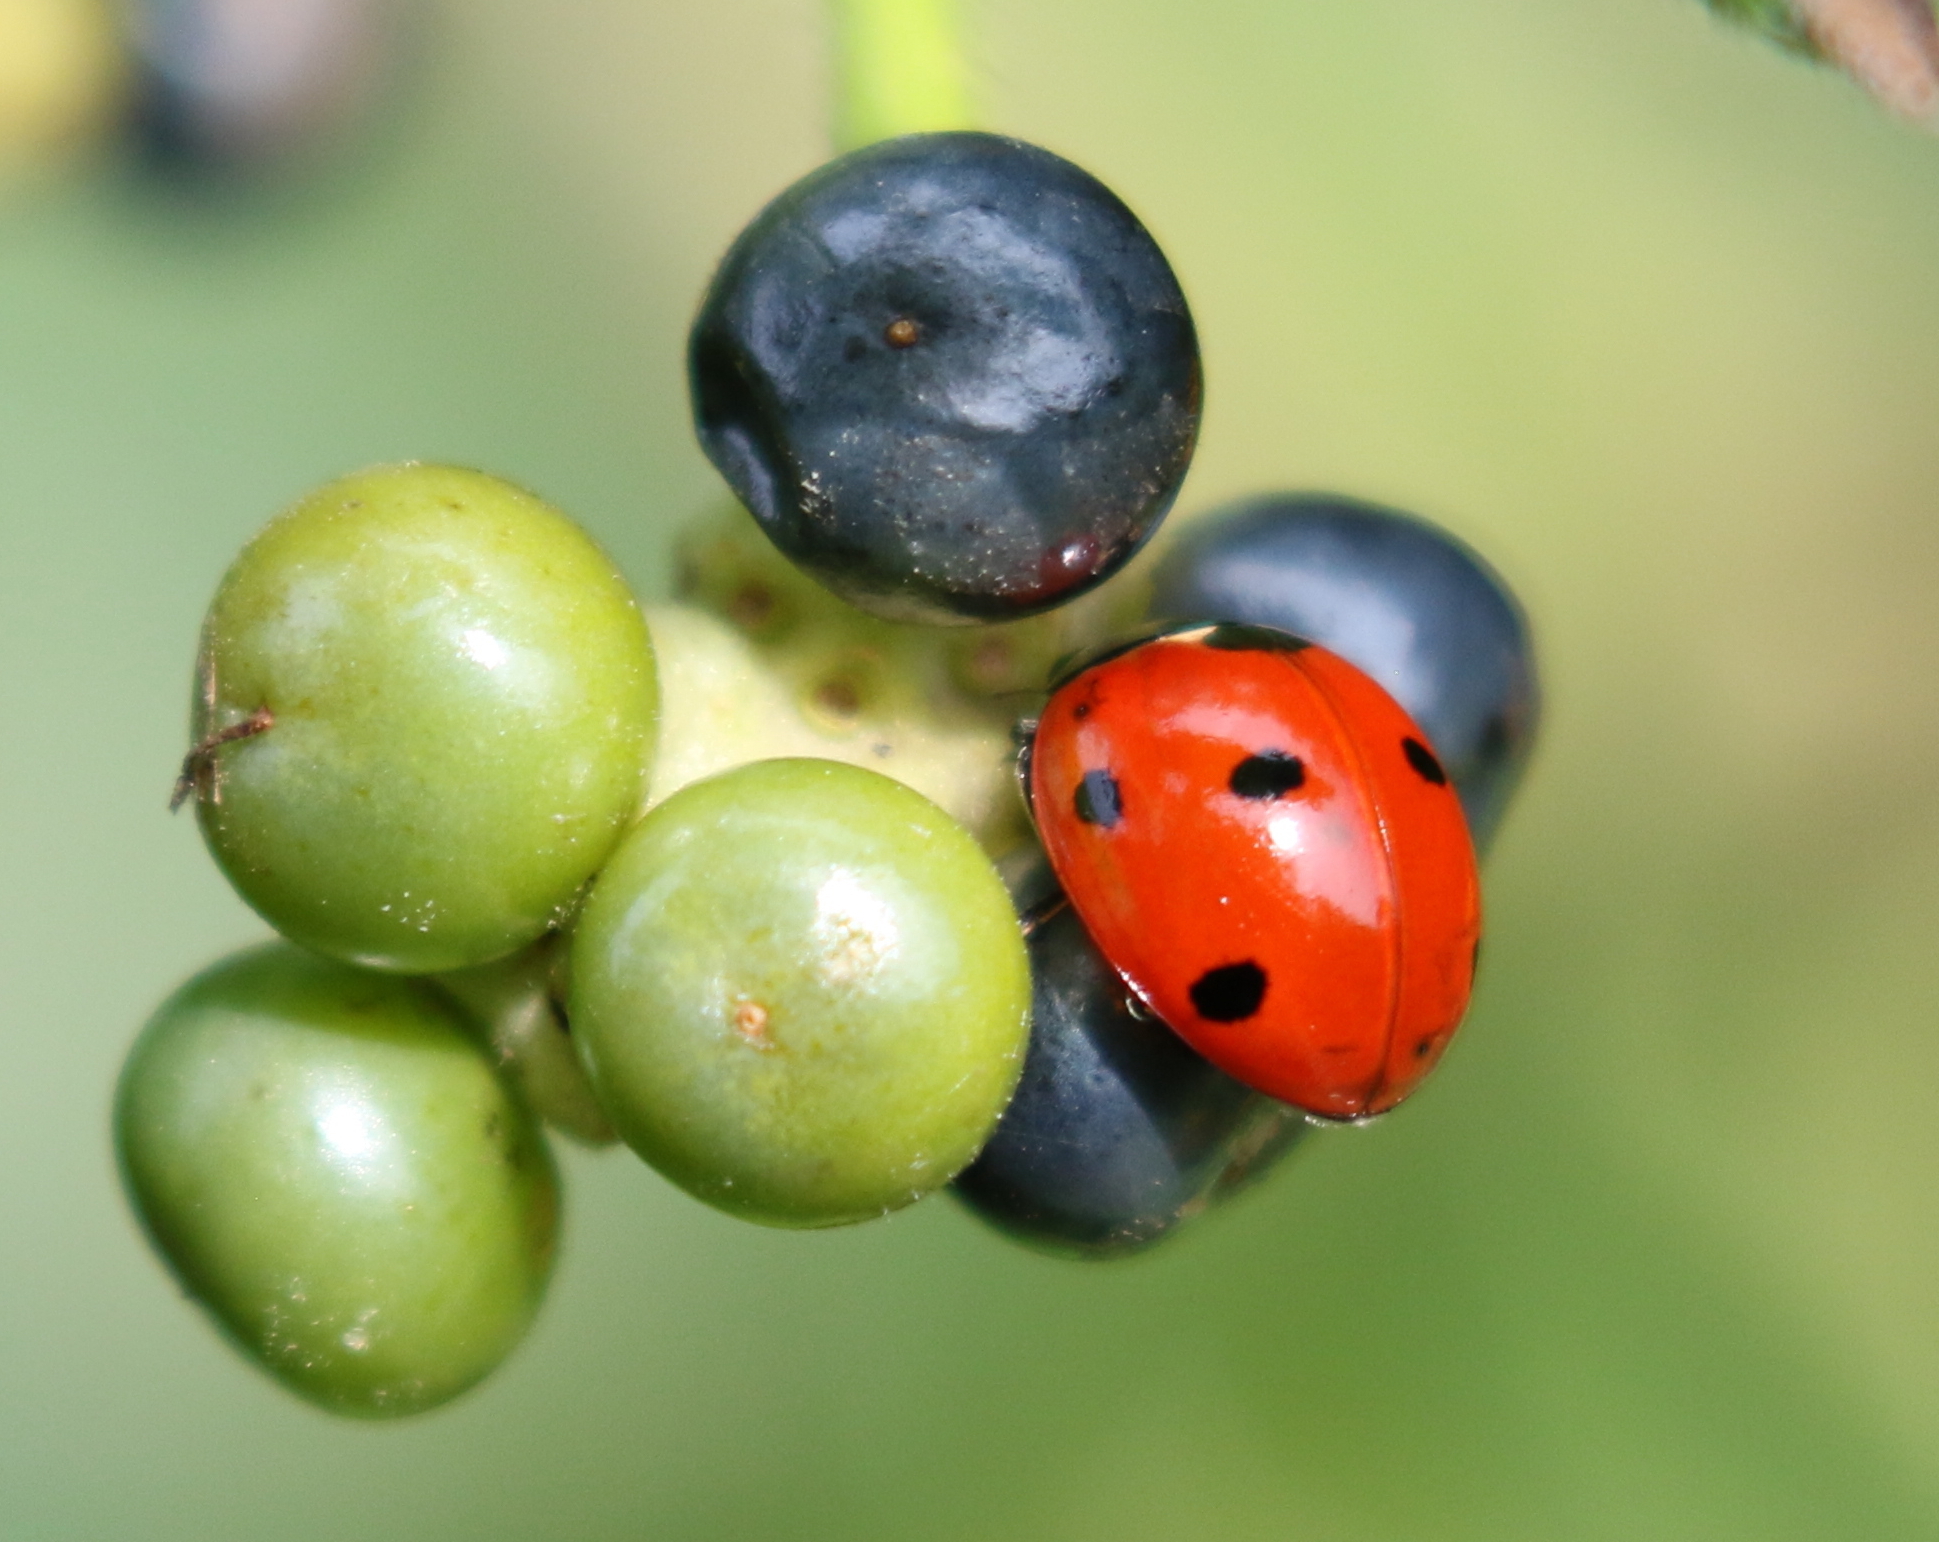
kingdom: Animalia
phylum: Arthropoda
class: Insecta
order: Coleoptera
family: Coccinellidae
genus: Coccinella
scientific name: Coccinella septempunctata
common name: Sevenspotted lady beetle
